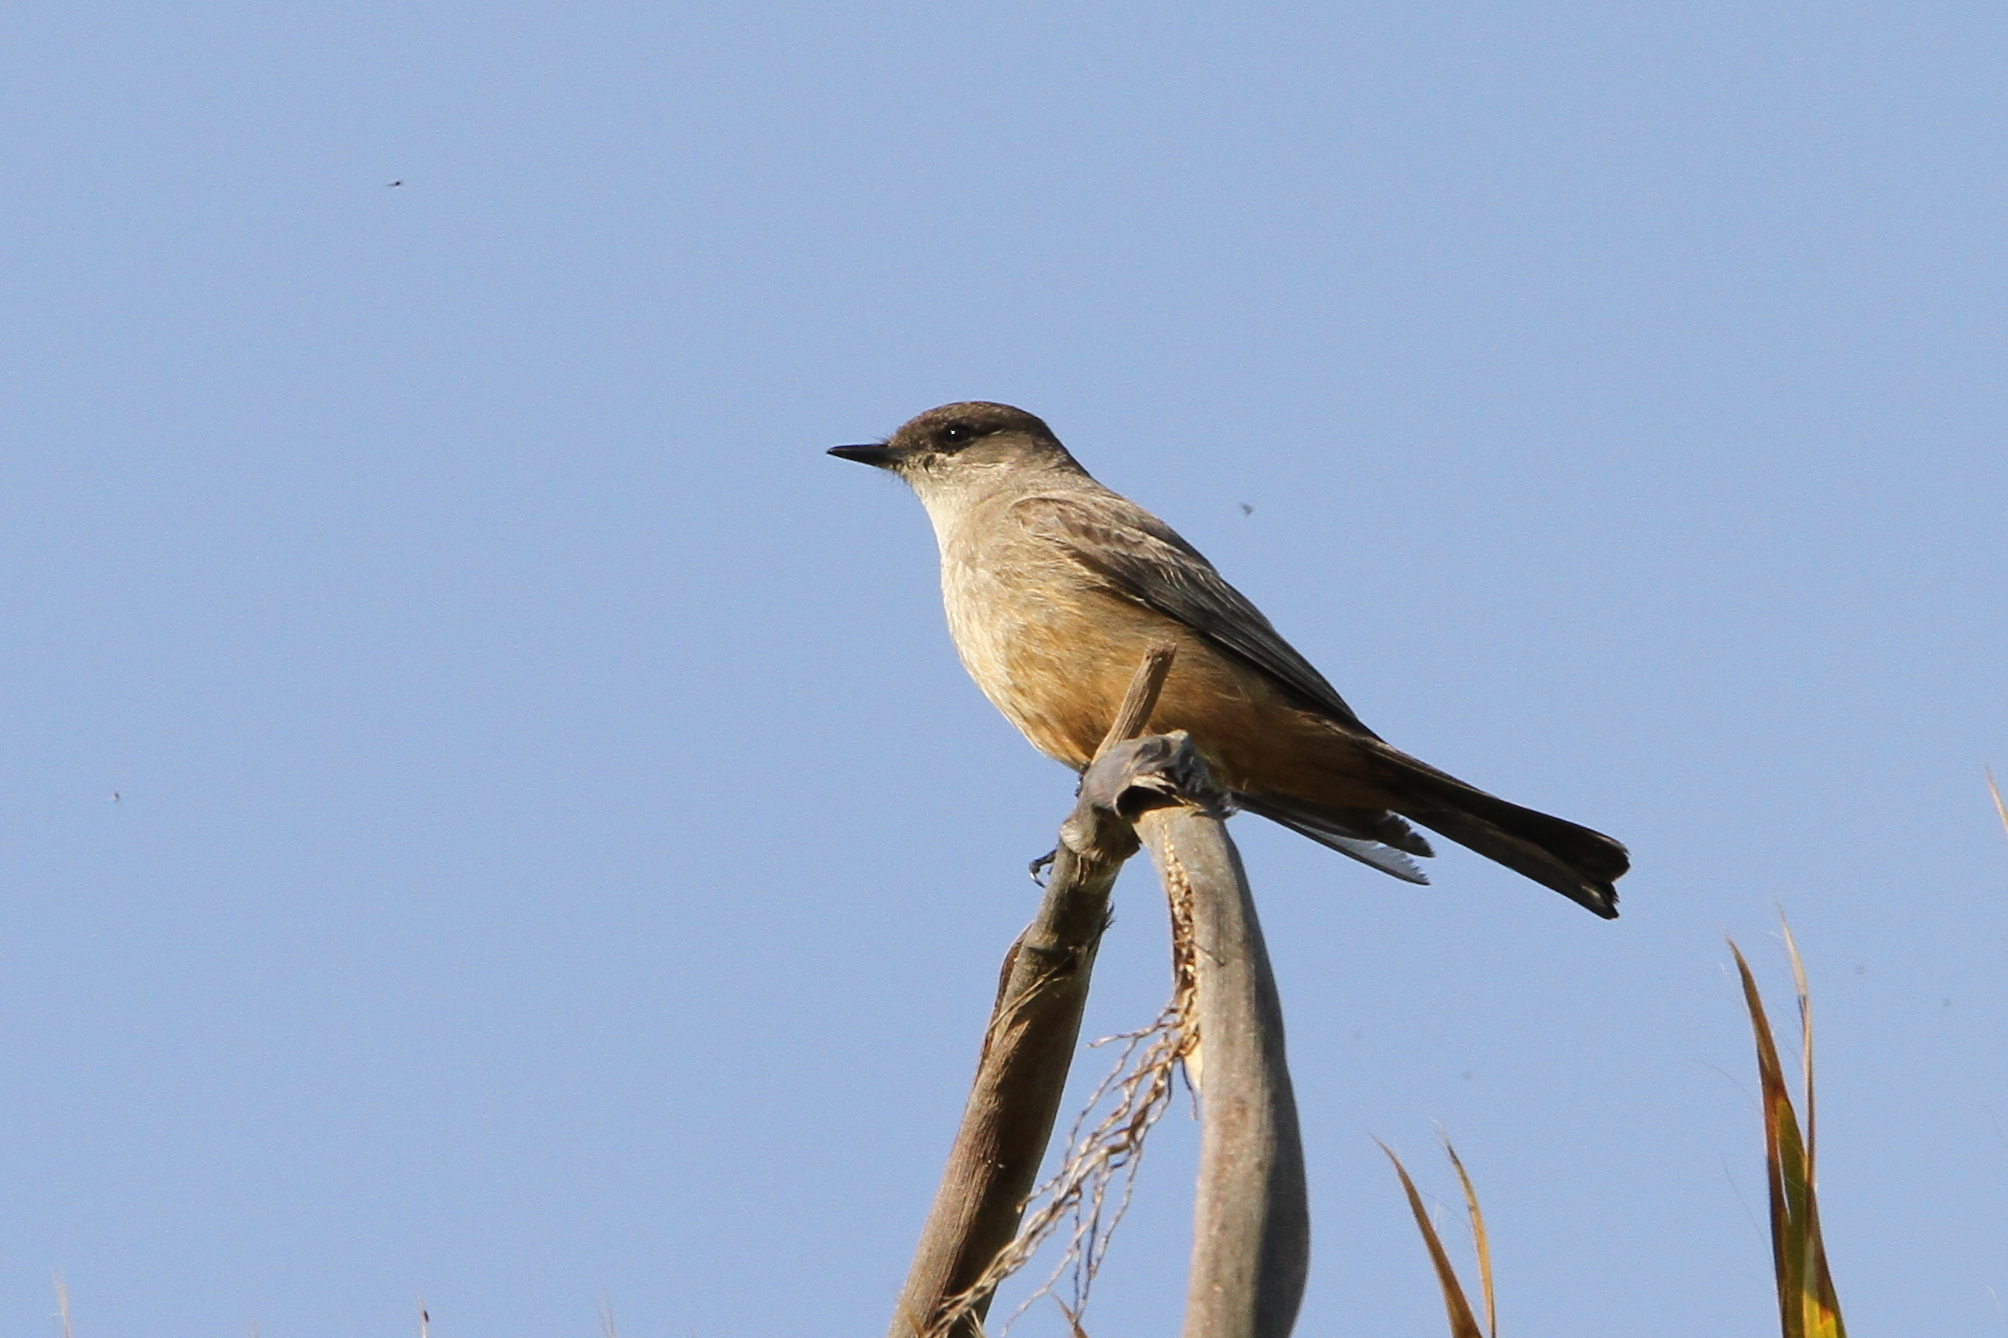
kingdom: Animalia
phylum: Chordata
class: Aves
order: Passeriformes
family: Tyrannidae
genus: Sayornis
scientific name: Sayornis saya
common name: Say's phoebe
